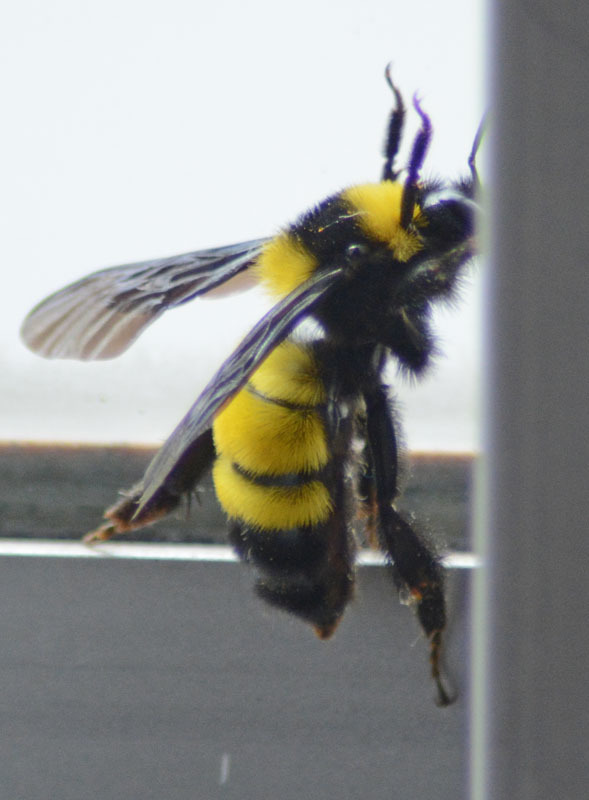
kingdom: Animalia
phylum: Arthropoda
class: Insecta
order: Hymenoptera
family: Apidae
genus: Bombus
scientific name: Bombus sonorus
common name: Sonoran bumble bee
